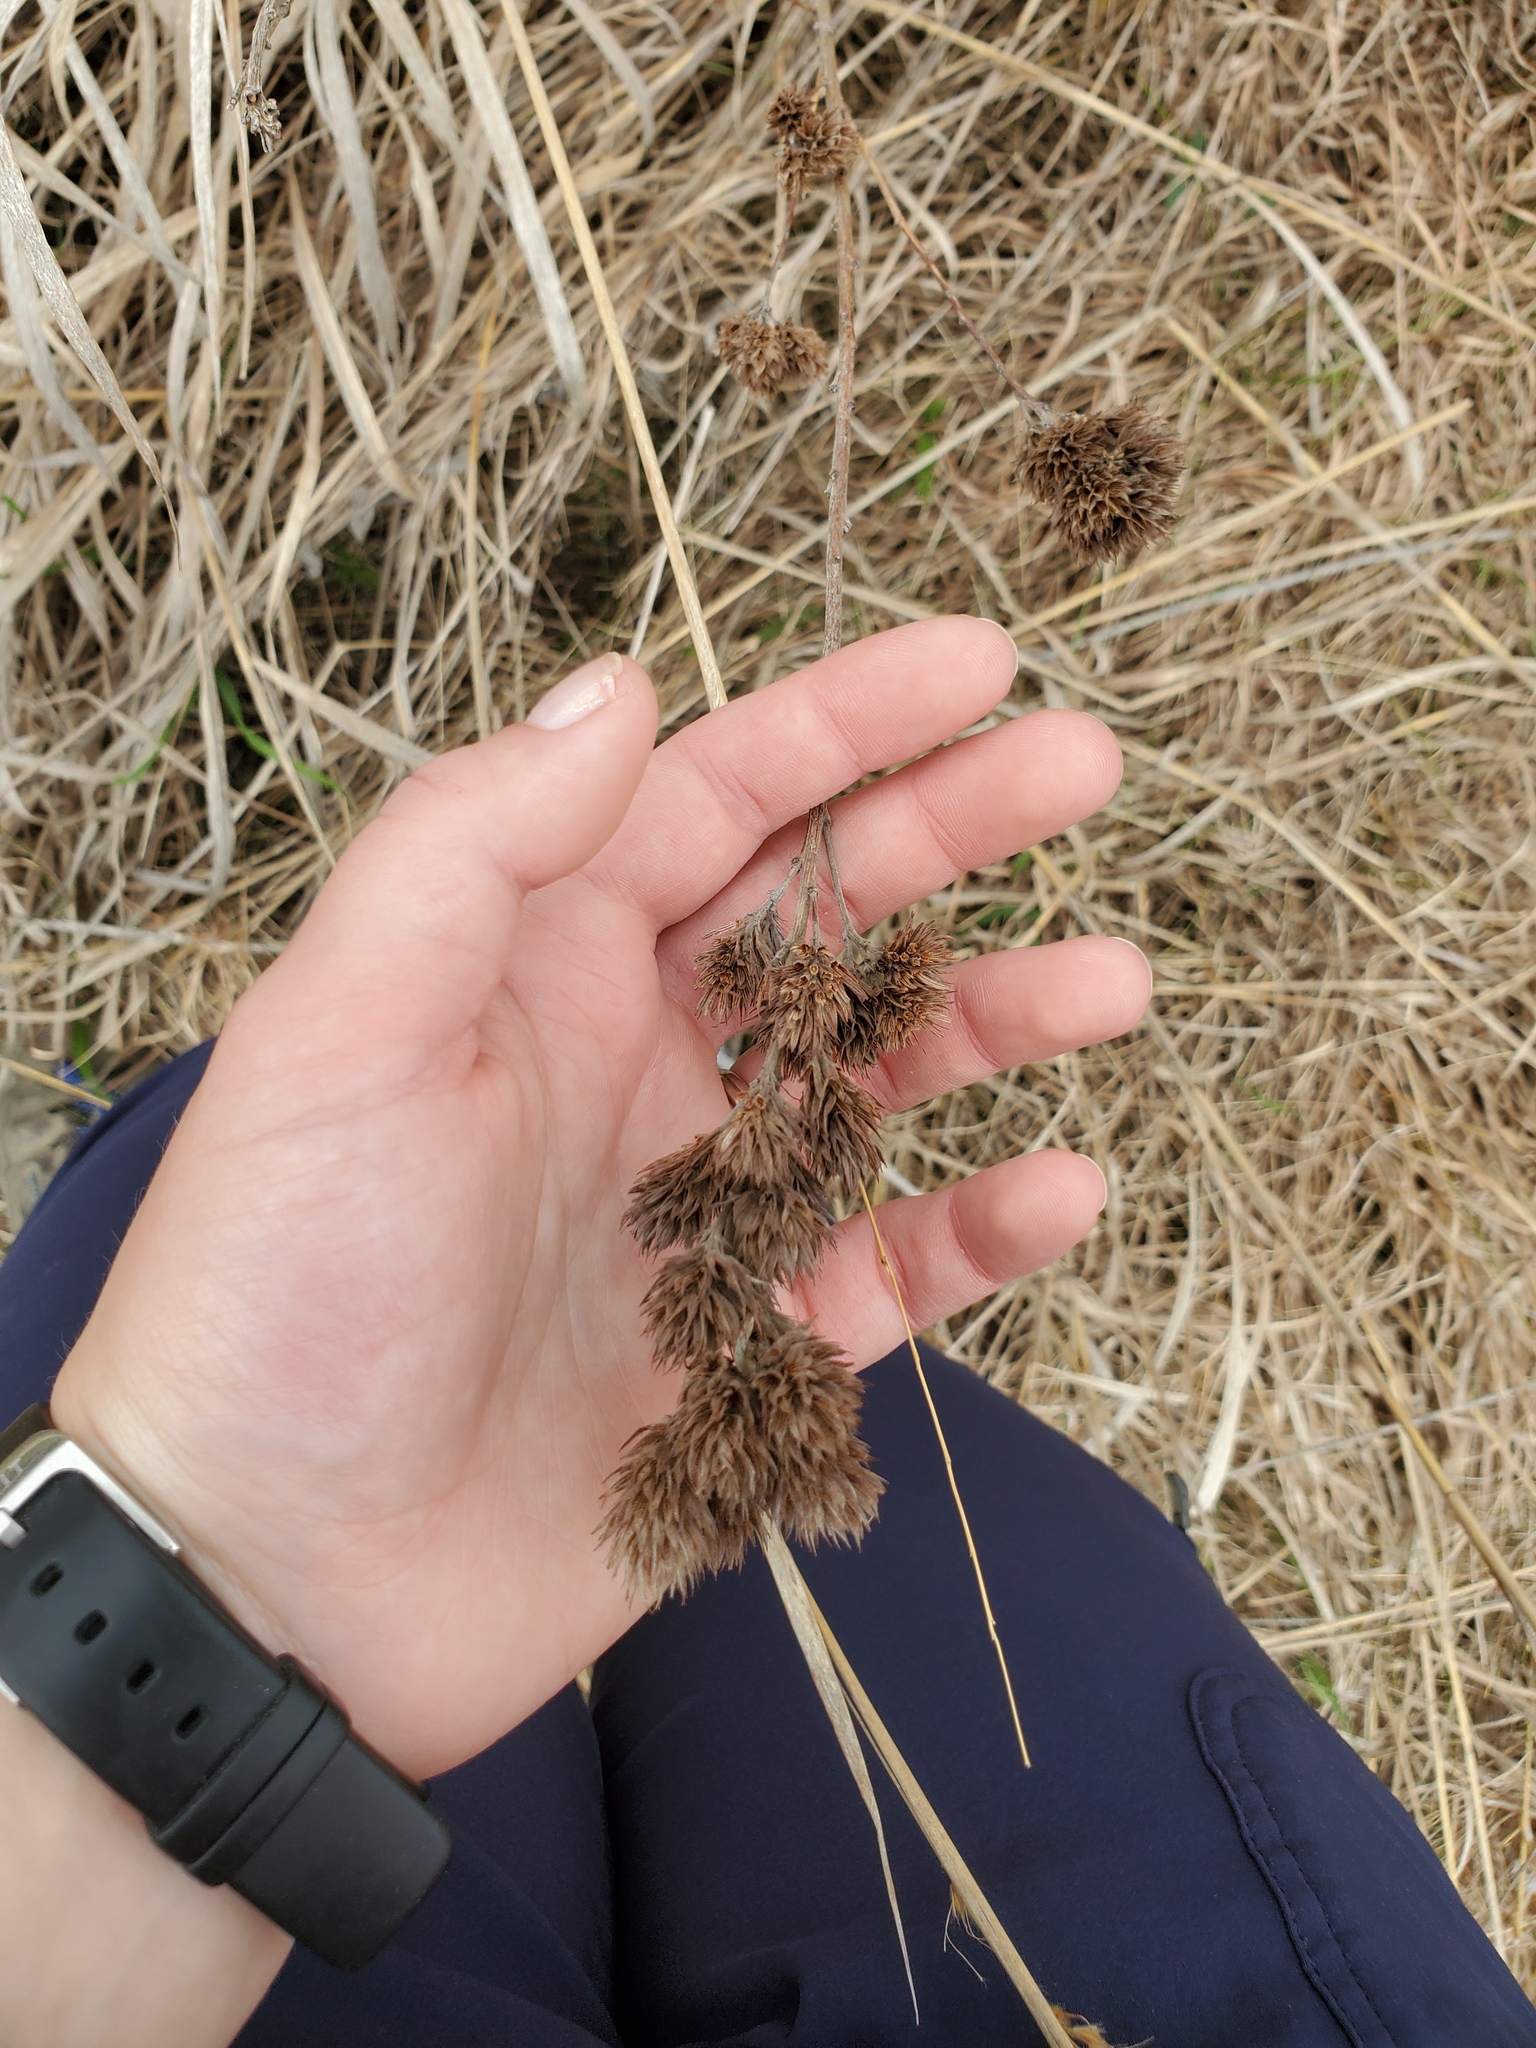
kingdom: Plantae
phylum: Tracheophyta
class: Magnoliopsida
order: Fabales
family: Fabaceae
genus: Lespedeza
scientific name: Lespedeza capitata
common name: Dusty clover
